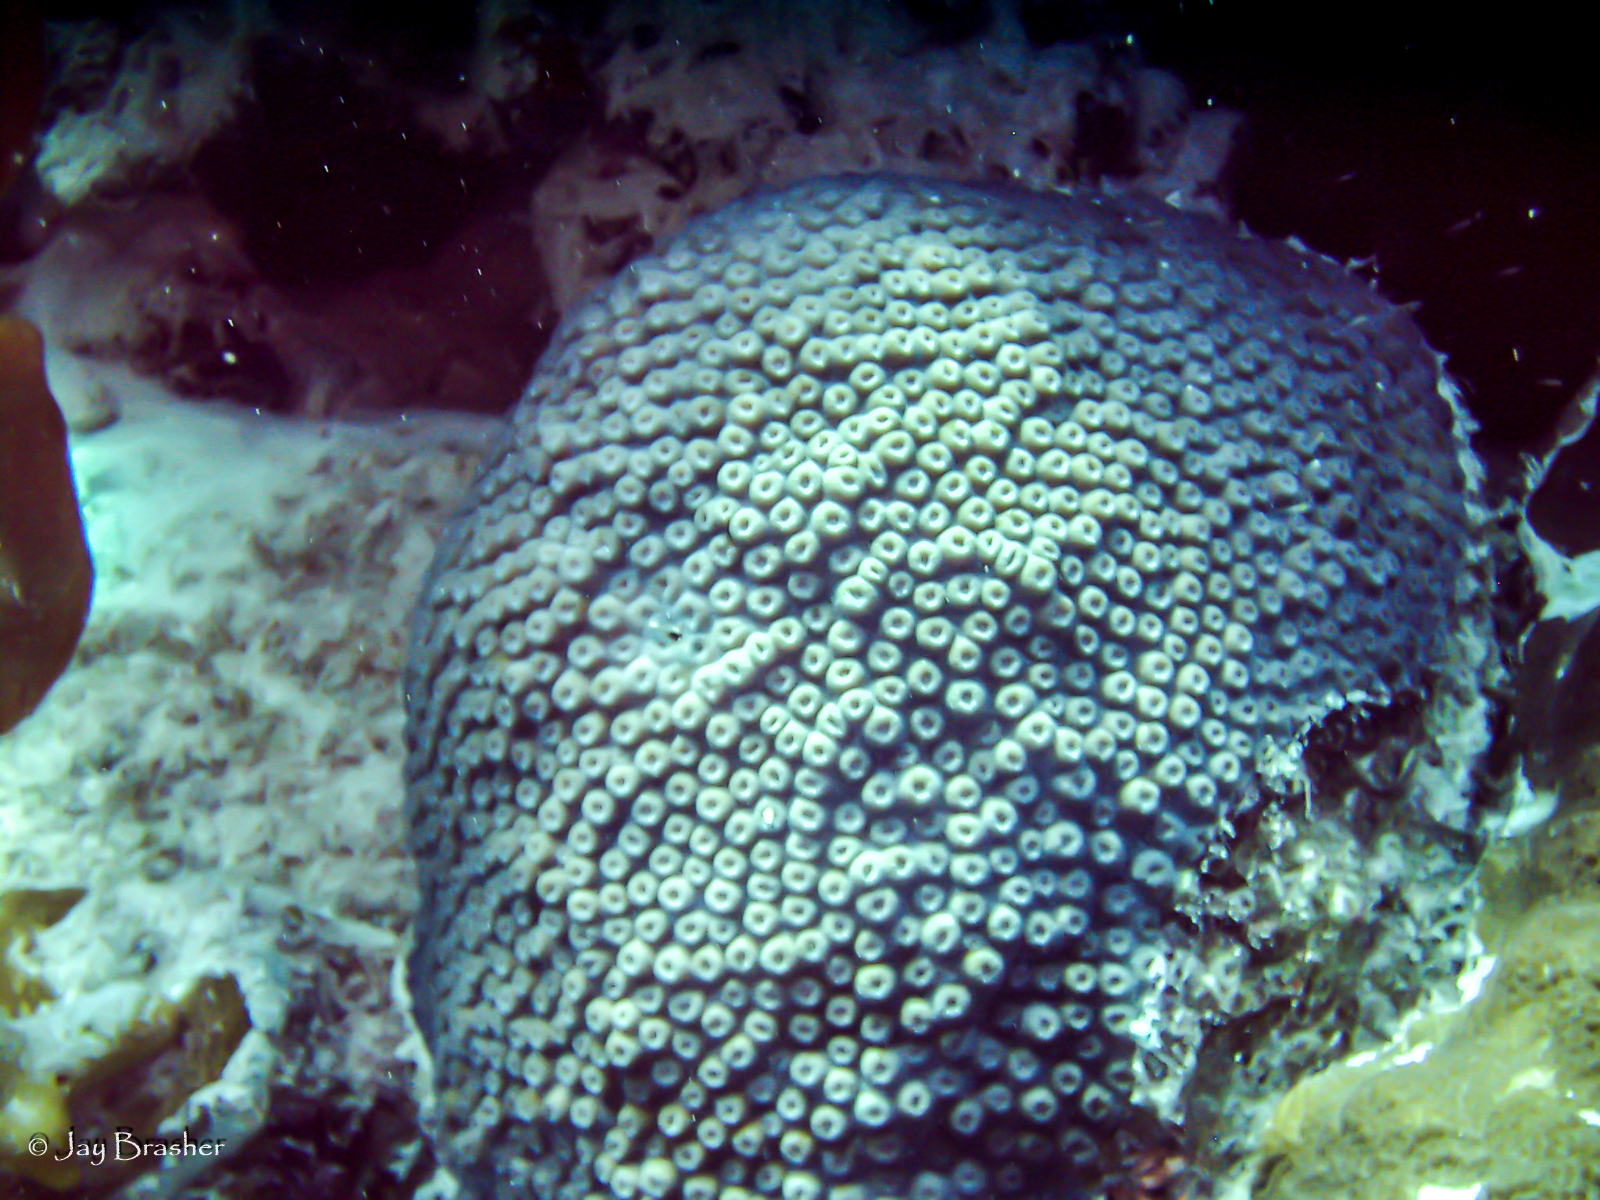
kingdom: Animalia
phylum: Cnidaria
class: Anthozoa
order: Scleractinia
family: Montastraeidae
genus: Montastraea
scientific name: Montastraea cavernosa
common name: Great star coral
